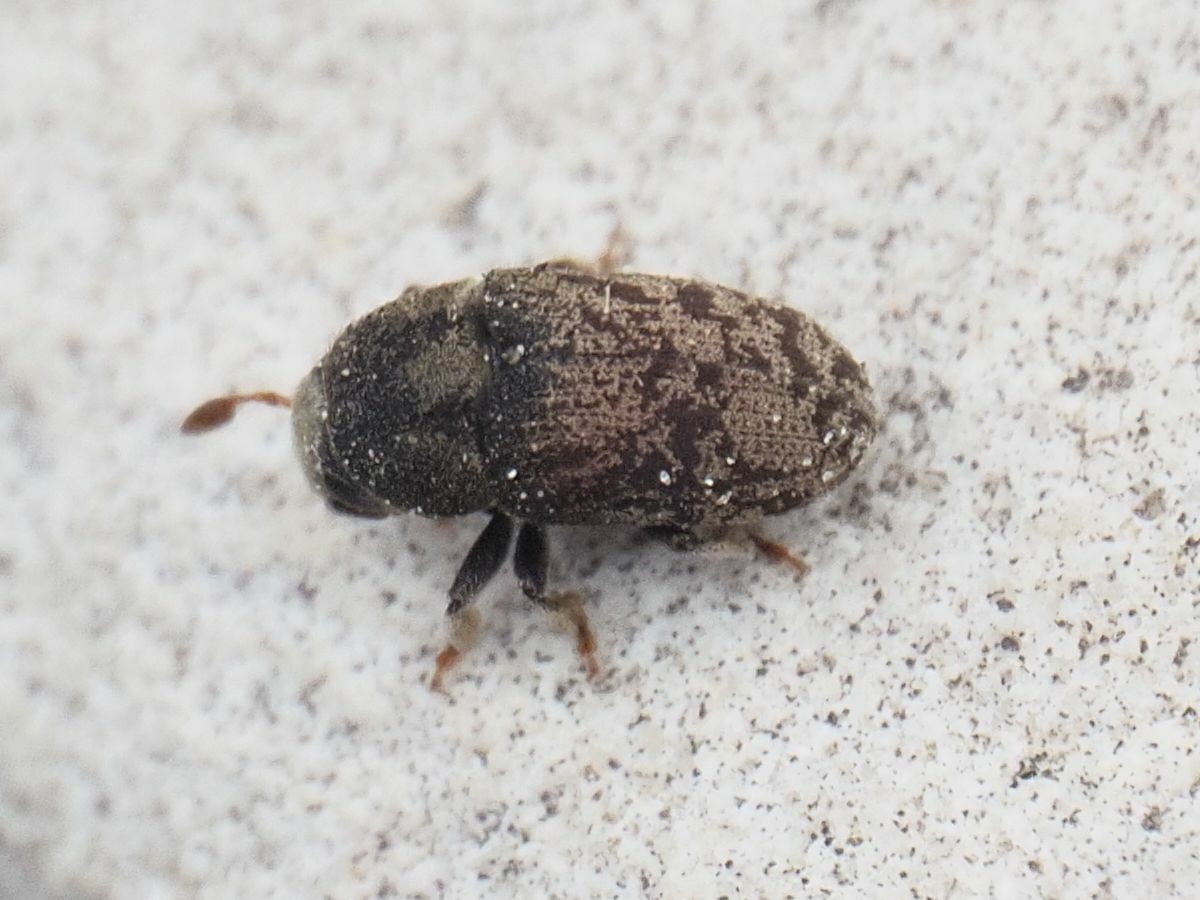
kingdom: Animalia
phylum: Arthropoda
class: Insecta
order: Coleoptera
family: Curculionidae
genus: Hylesinus
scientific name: Hylesinus varius
